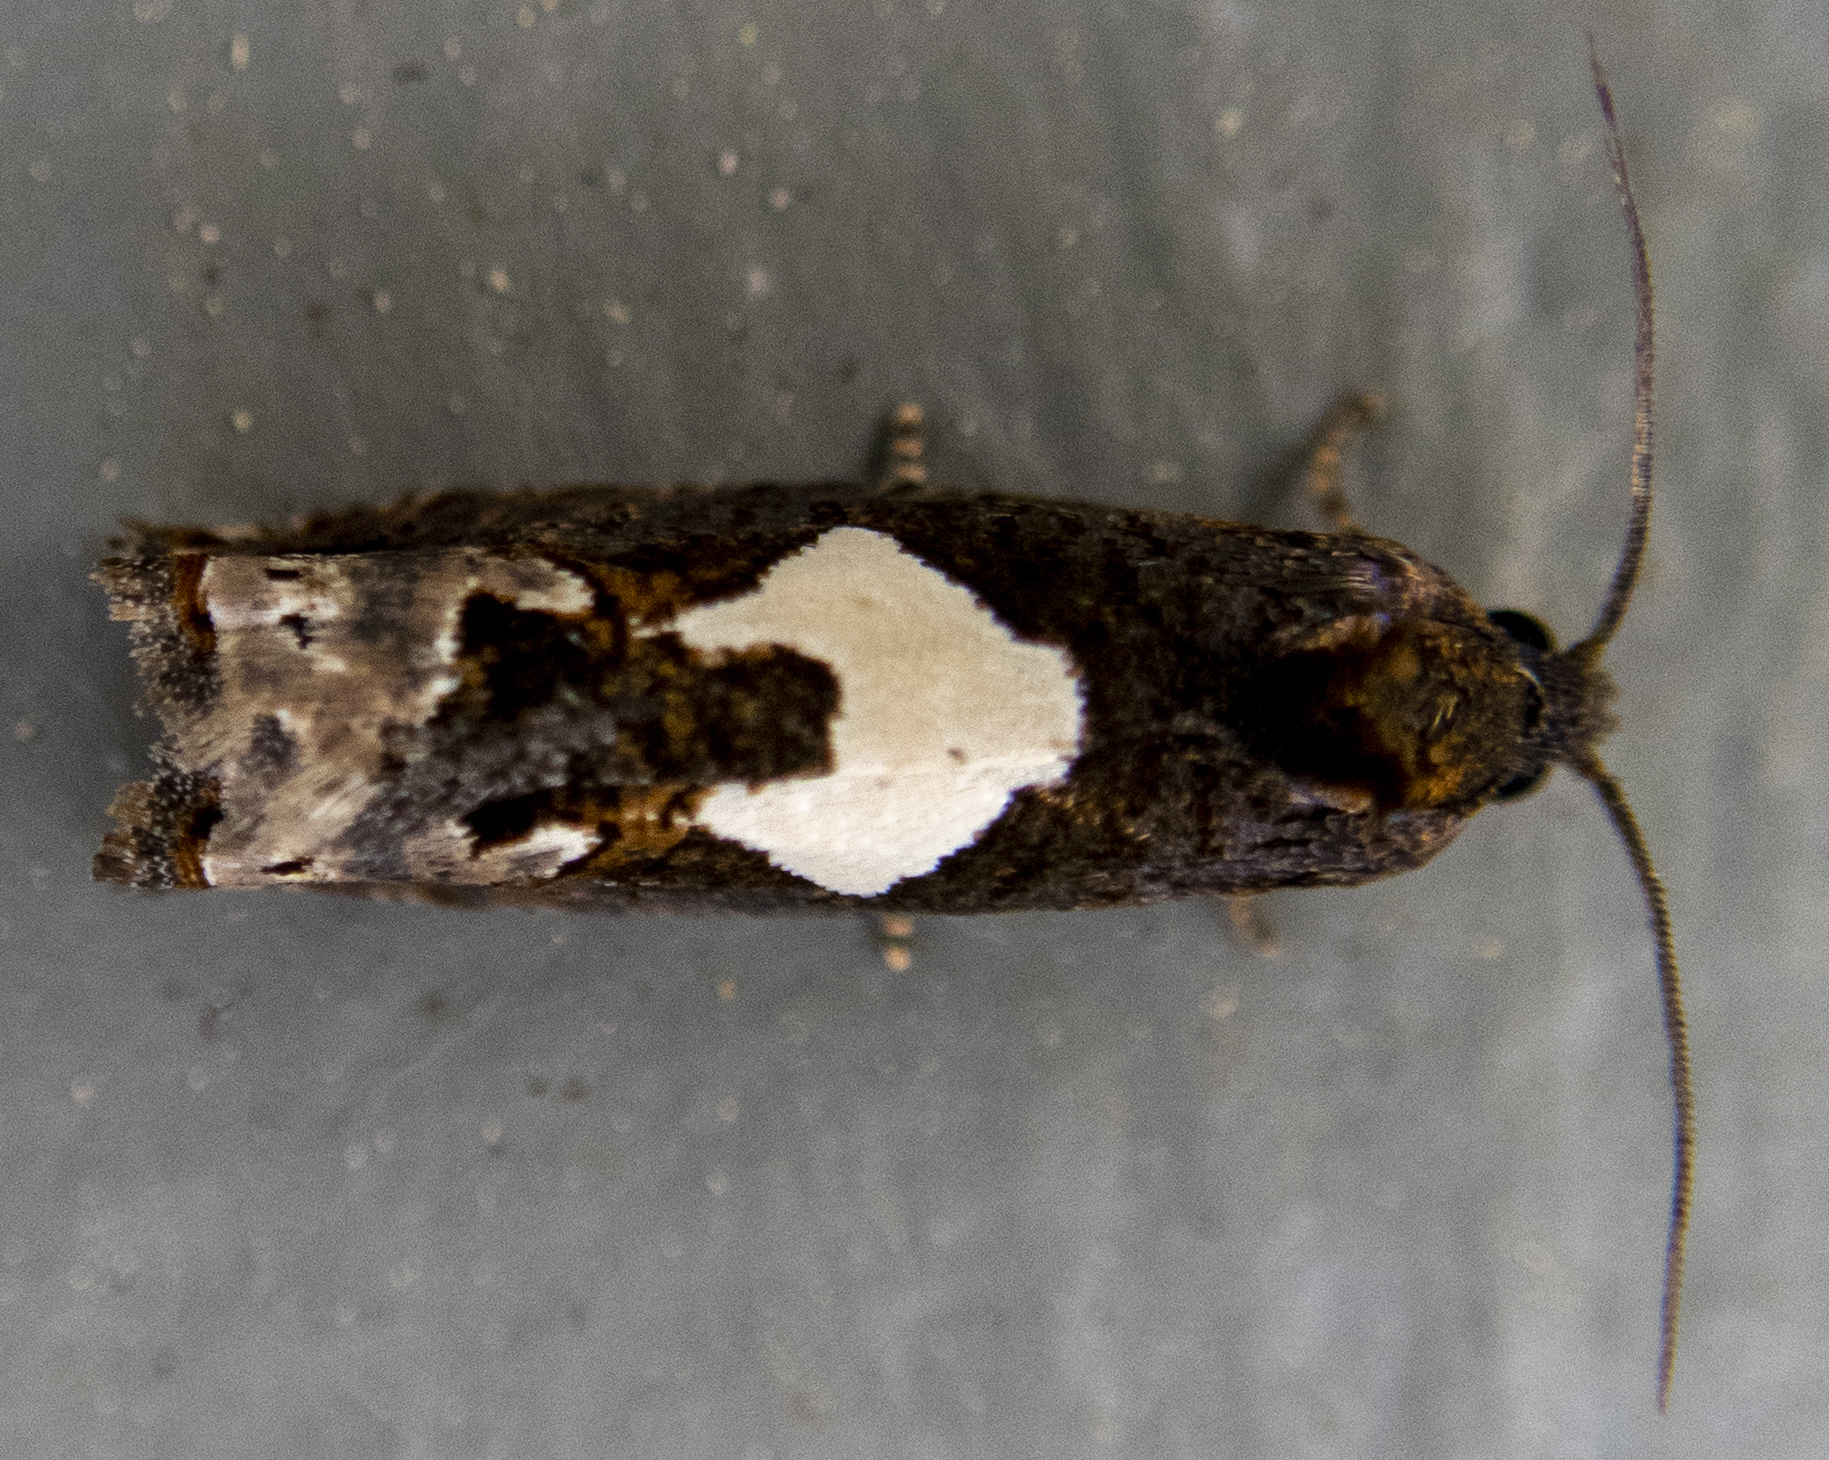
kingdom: Animalia
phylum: Arthropoda
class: Insecta
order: Lepidoptera
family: Tortricidae
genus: Epiblema
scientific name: Epiblema otiosana
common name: Bidens borer moth
